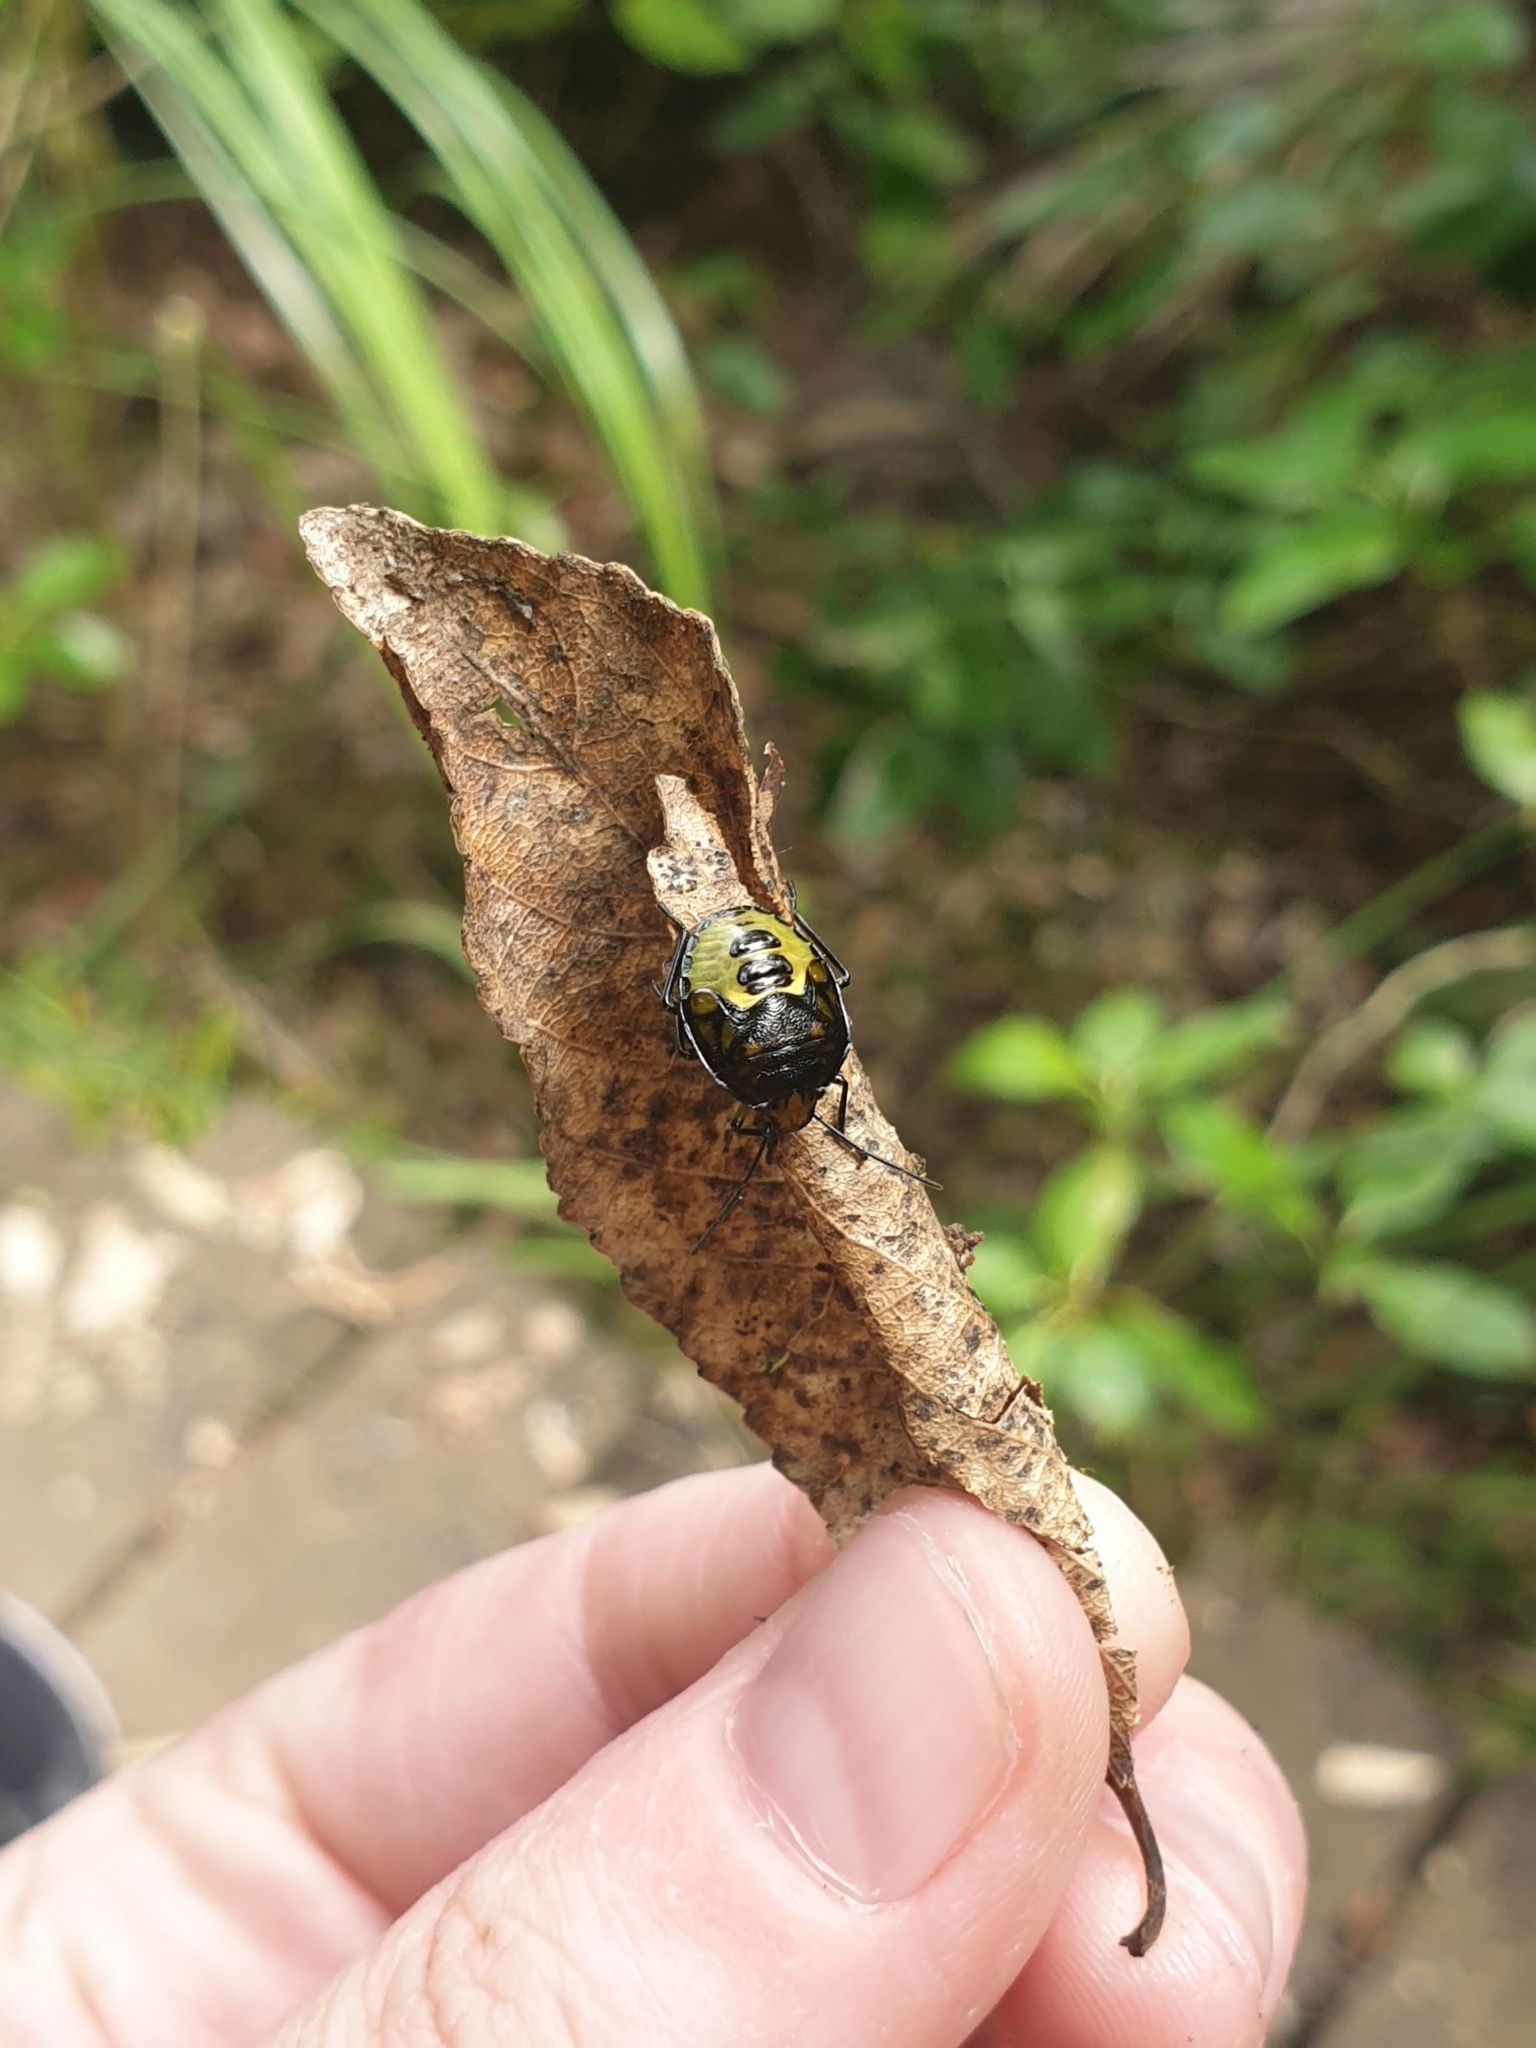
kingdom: Animalia
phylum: Arthropoda
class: Insecta
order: Hemiptera
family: Pentatomidae
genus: Glaucias
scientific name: Glaucias amyota
